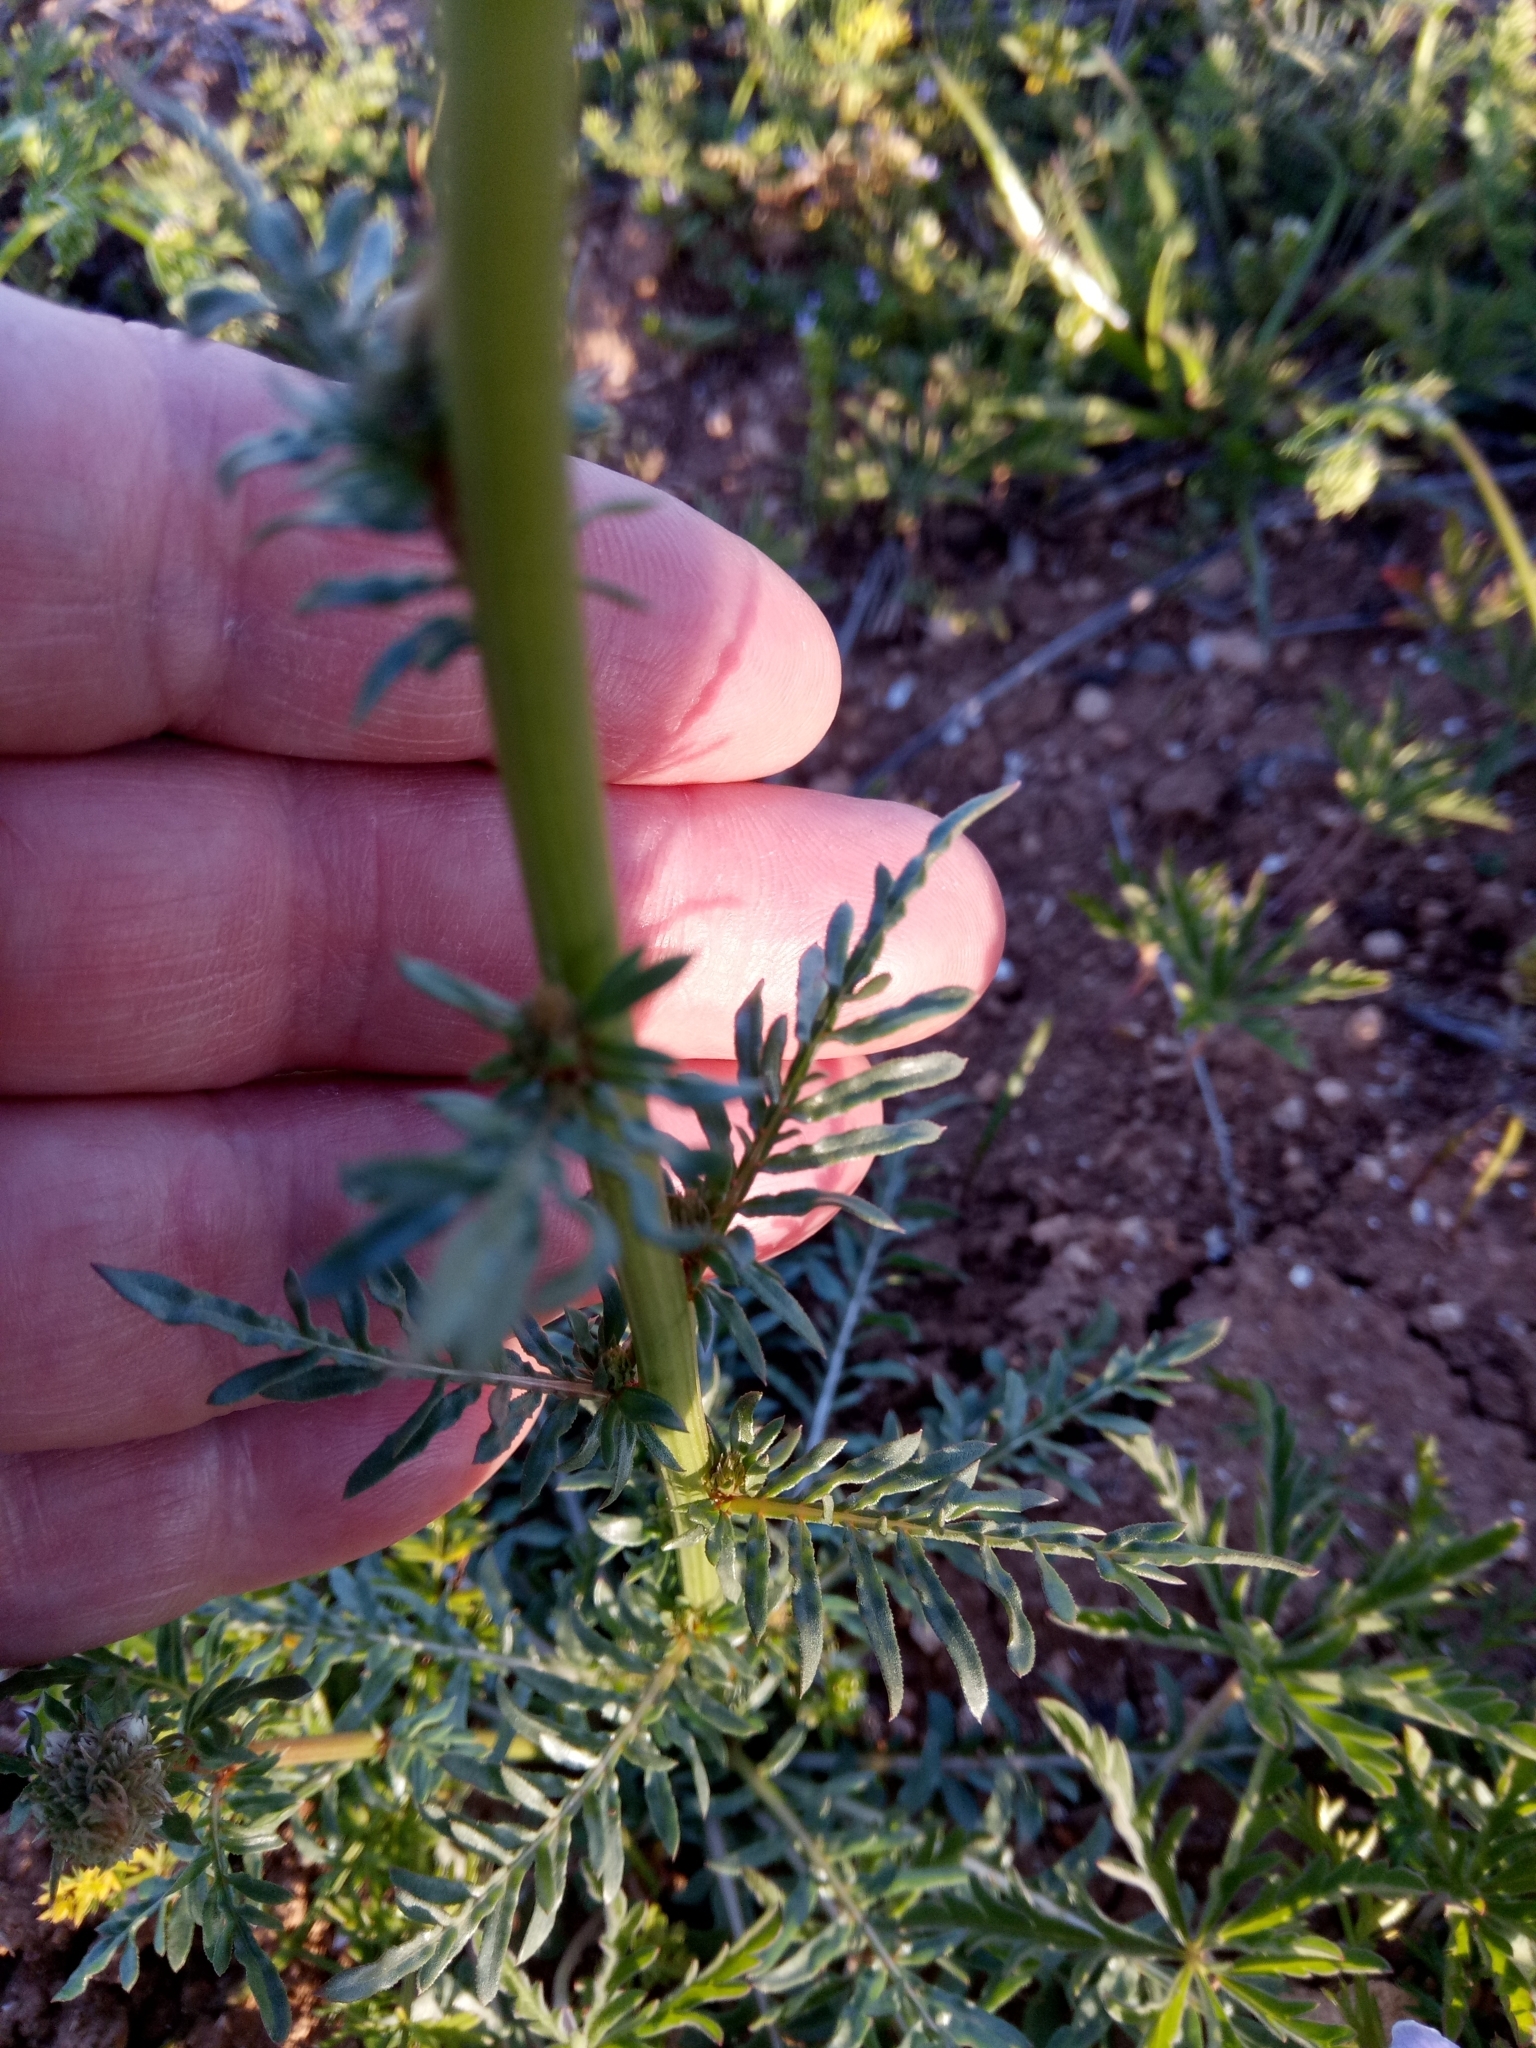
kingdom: Plantae
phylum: Tracheophyta
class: Magnoliopsida
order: Brassicales
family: Resedaceae
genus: Reseda
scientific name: Reseda alba
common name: White mignonette
